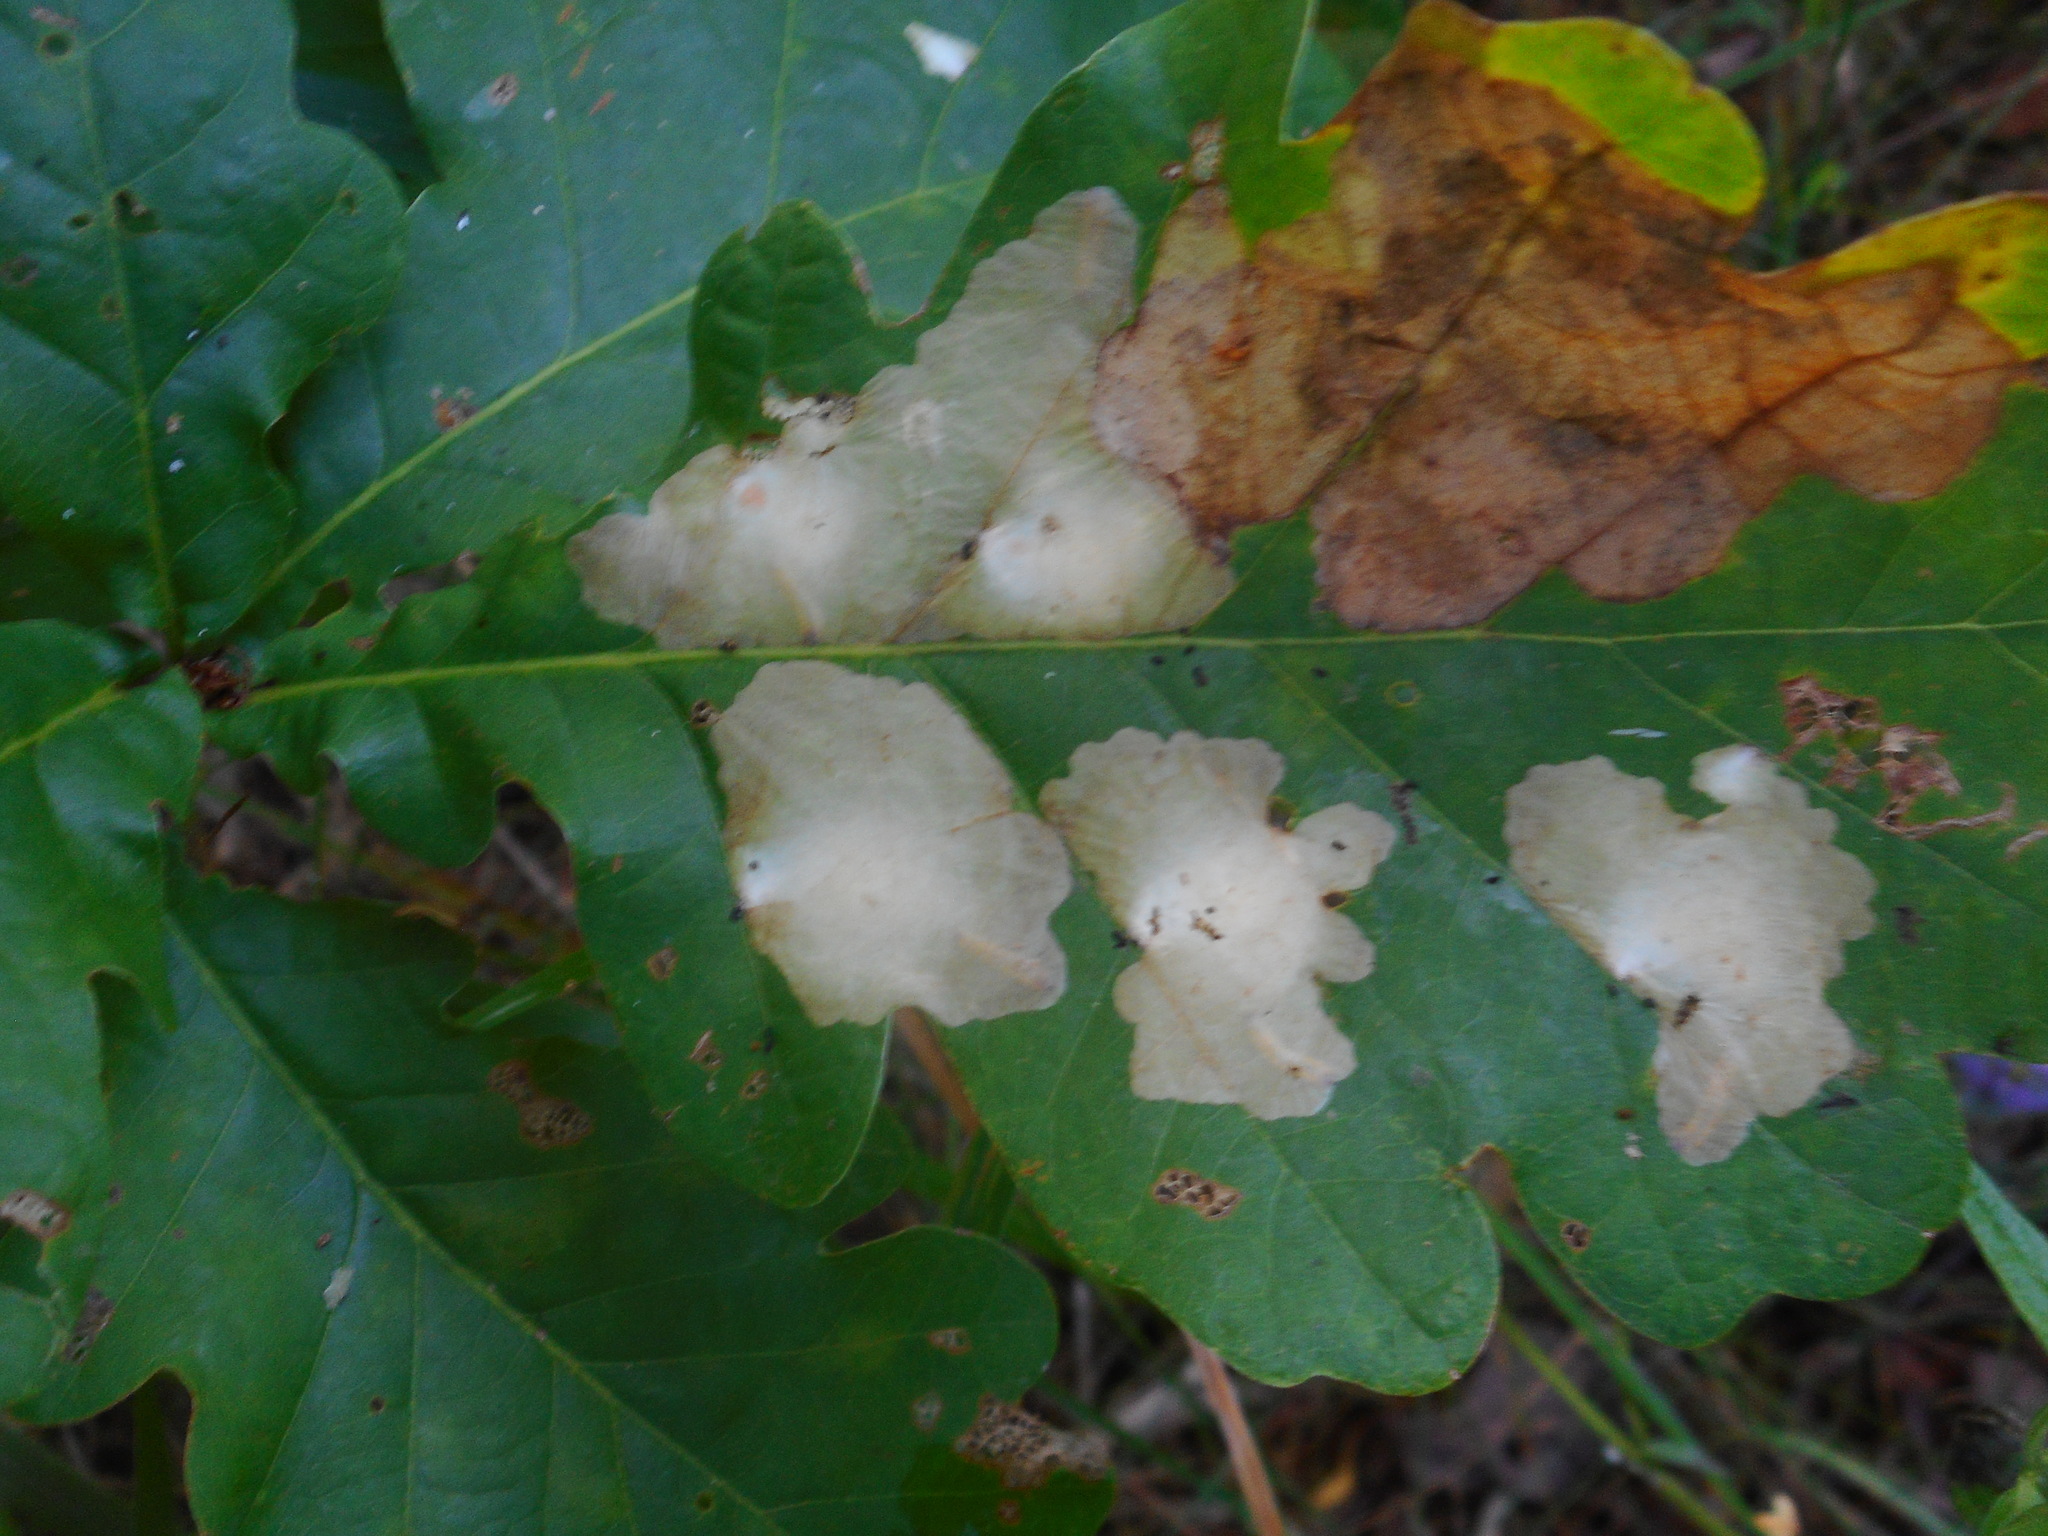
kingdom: Animalia
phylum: Arthropoda
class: Insecta
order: Lepidoptera
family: Tischeriidae
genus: Tischeria
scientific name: Tischeria ekebladella
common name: Oak carl
